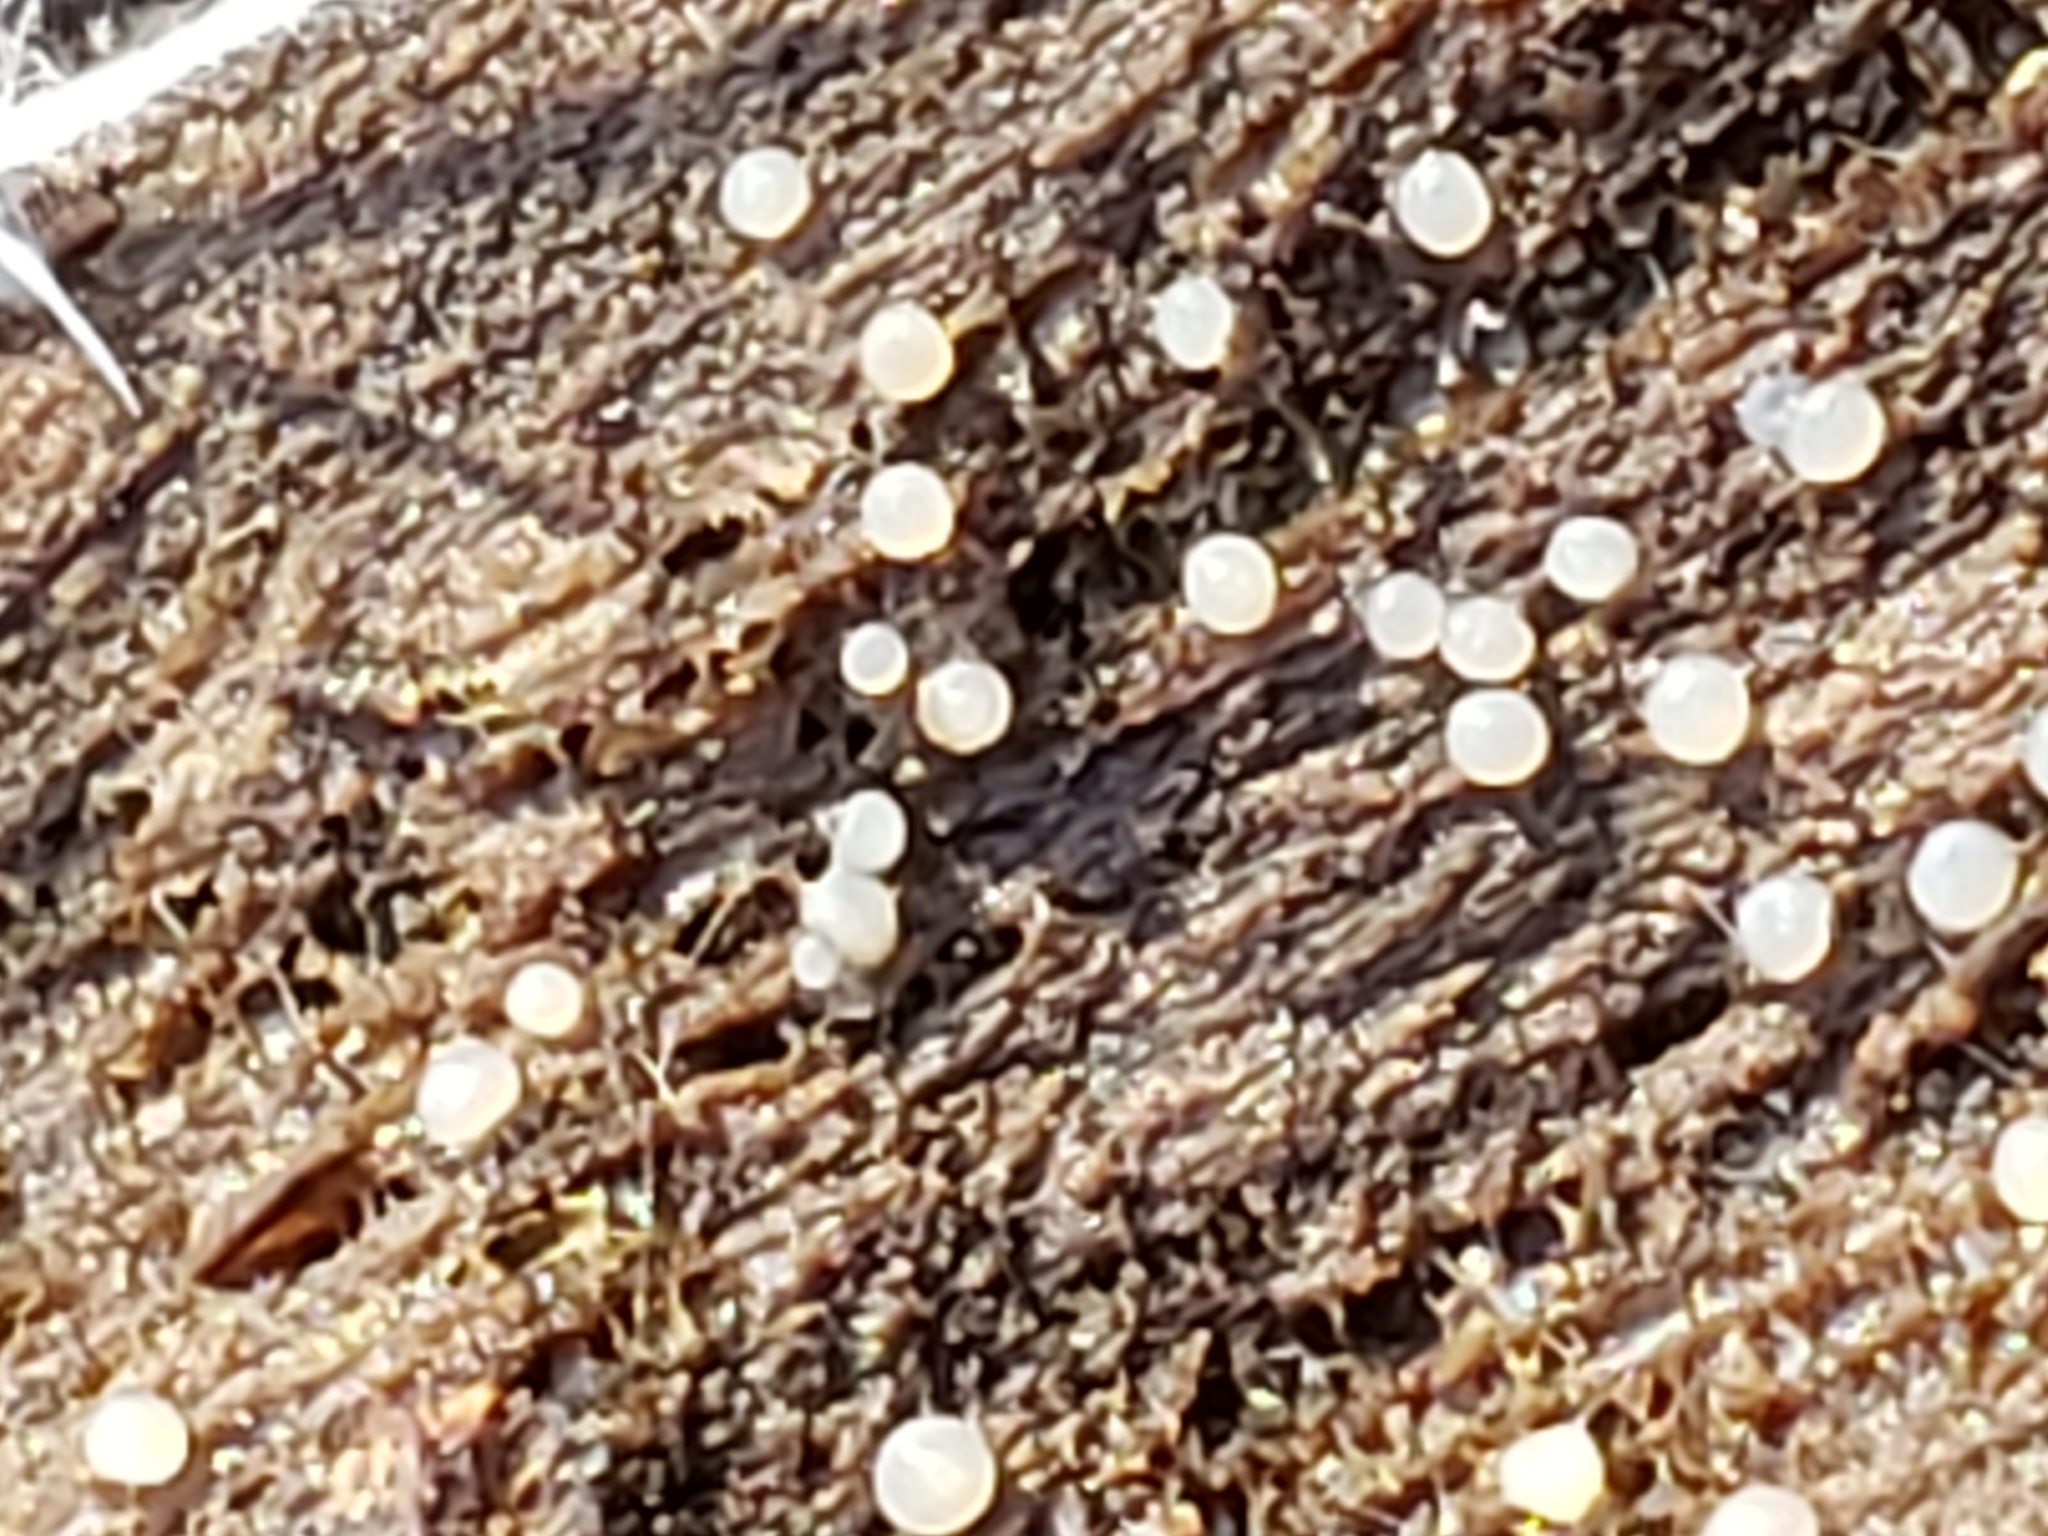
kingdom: Fungi
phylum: Basidiomycota
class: Atractiellomycetes
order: Atractiellales
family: Phleogenaceae
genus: Helicogloea
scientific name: Helicogloea compressa
